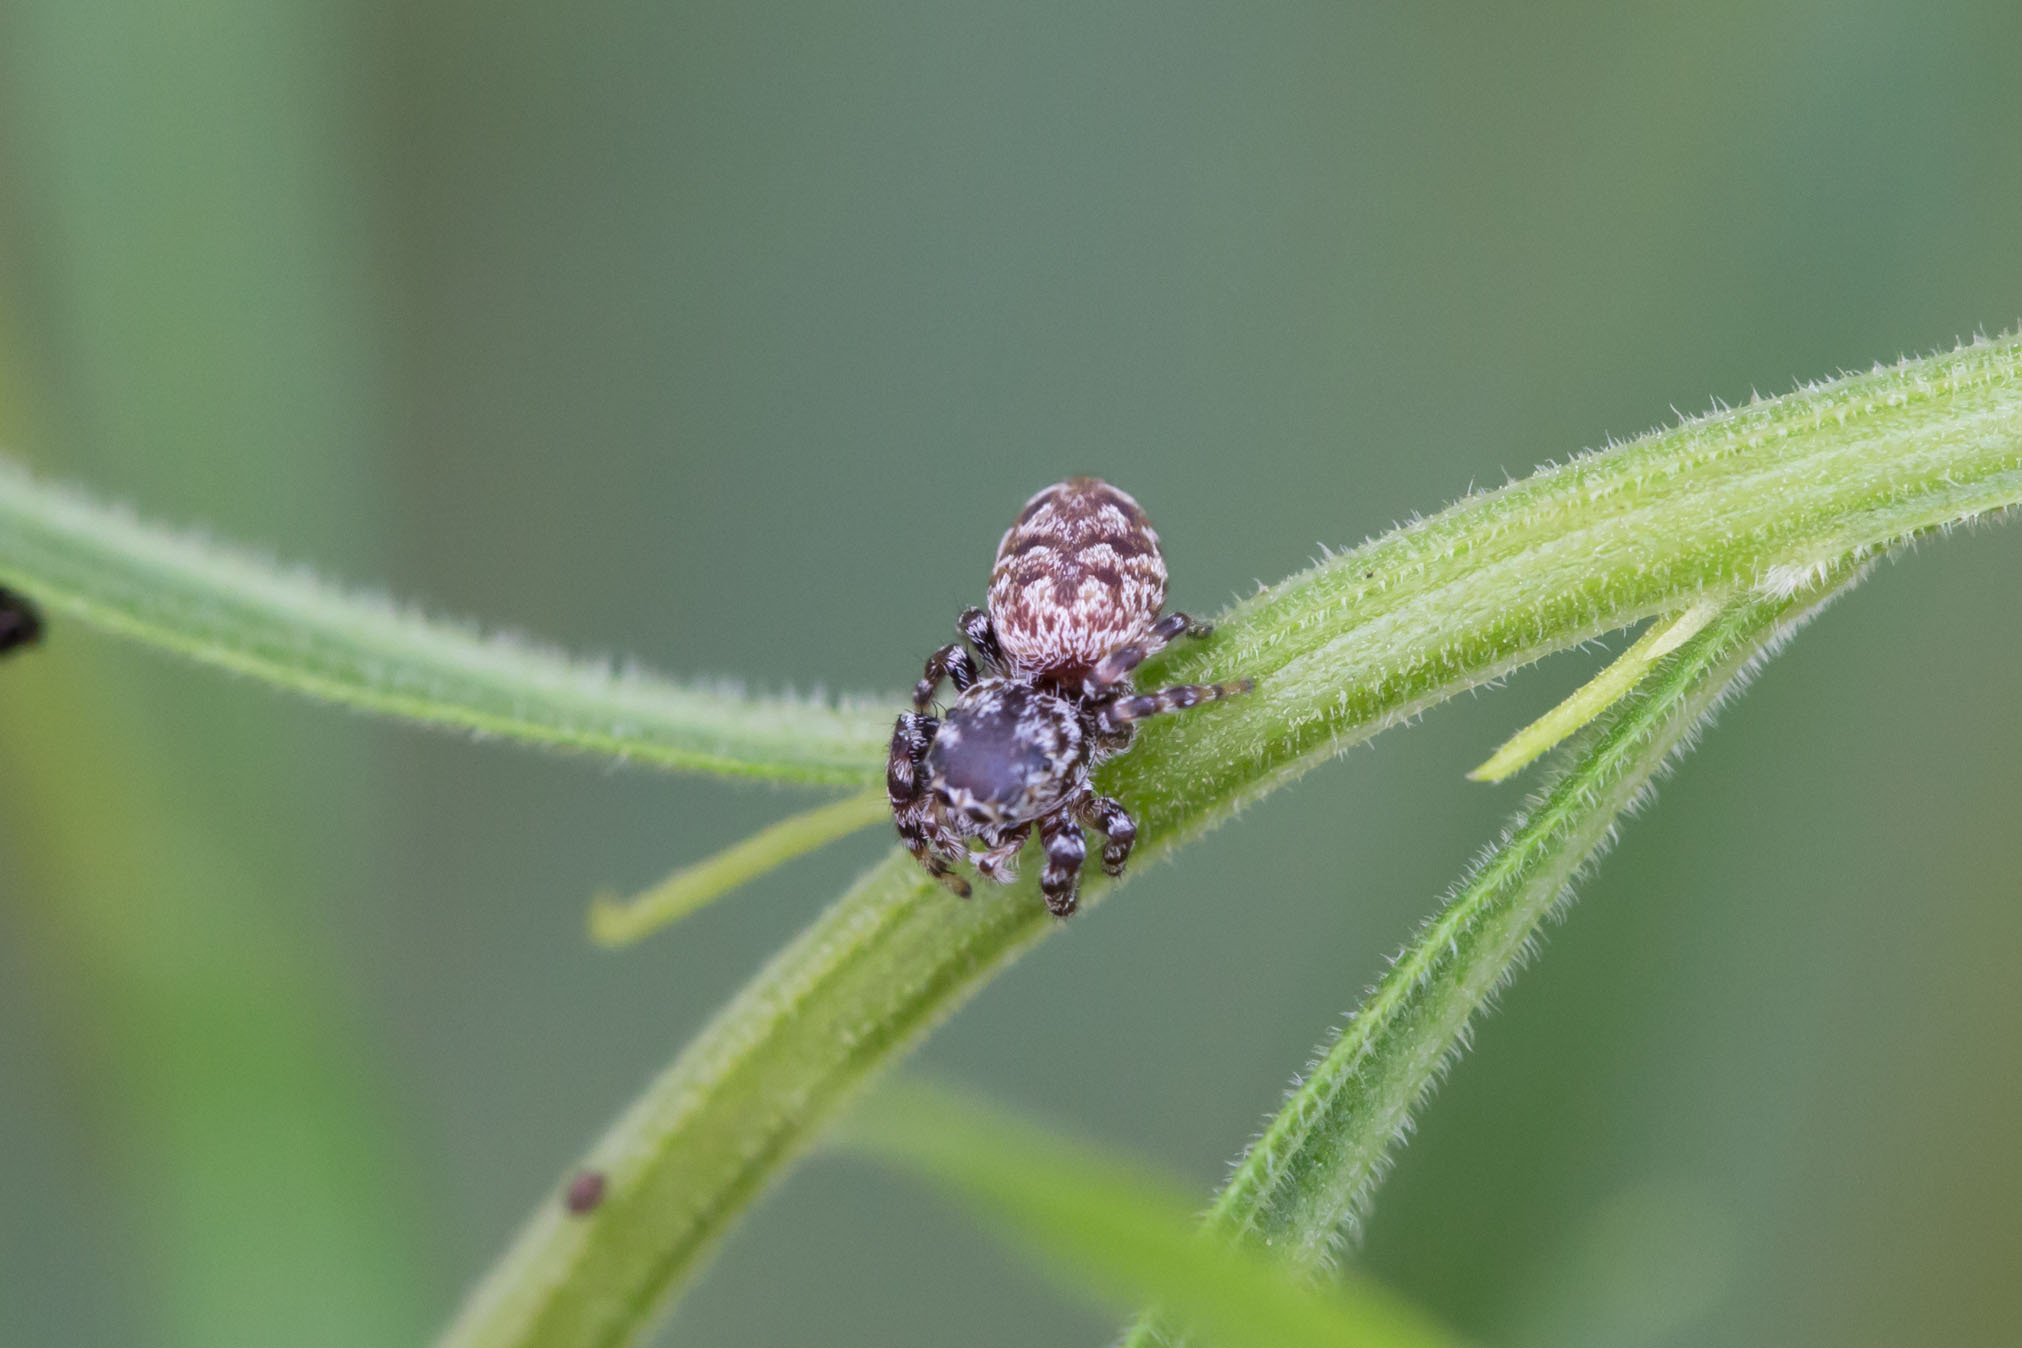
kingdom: Animalia
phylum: Arthropoda
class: Arachnida
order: Araneae
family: Salticidae
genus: Pelegrina
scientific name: Pelegrina galathea
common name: Jumping spiders
